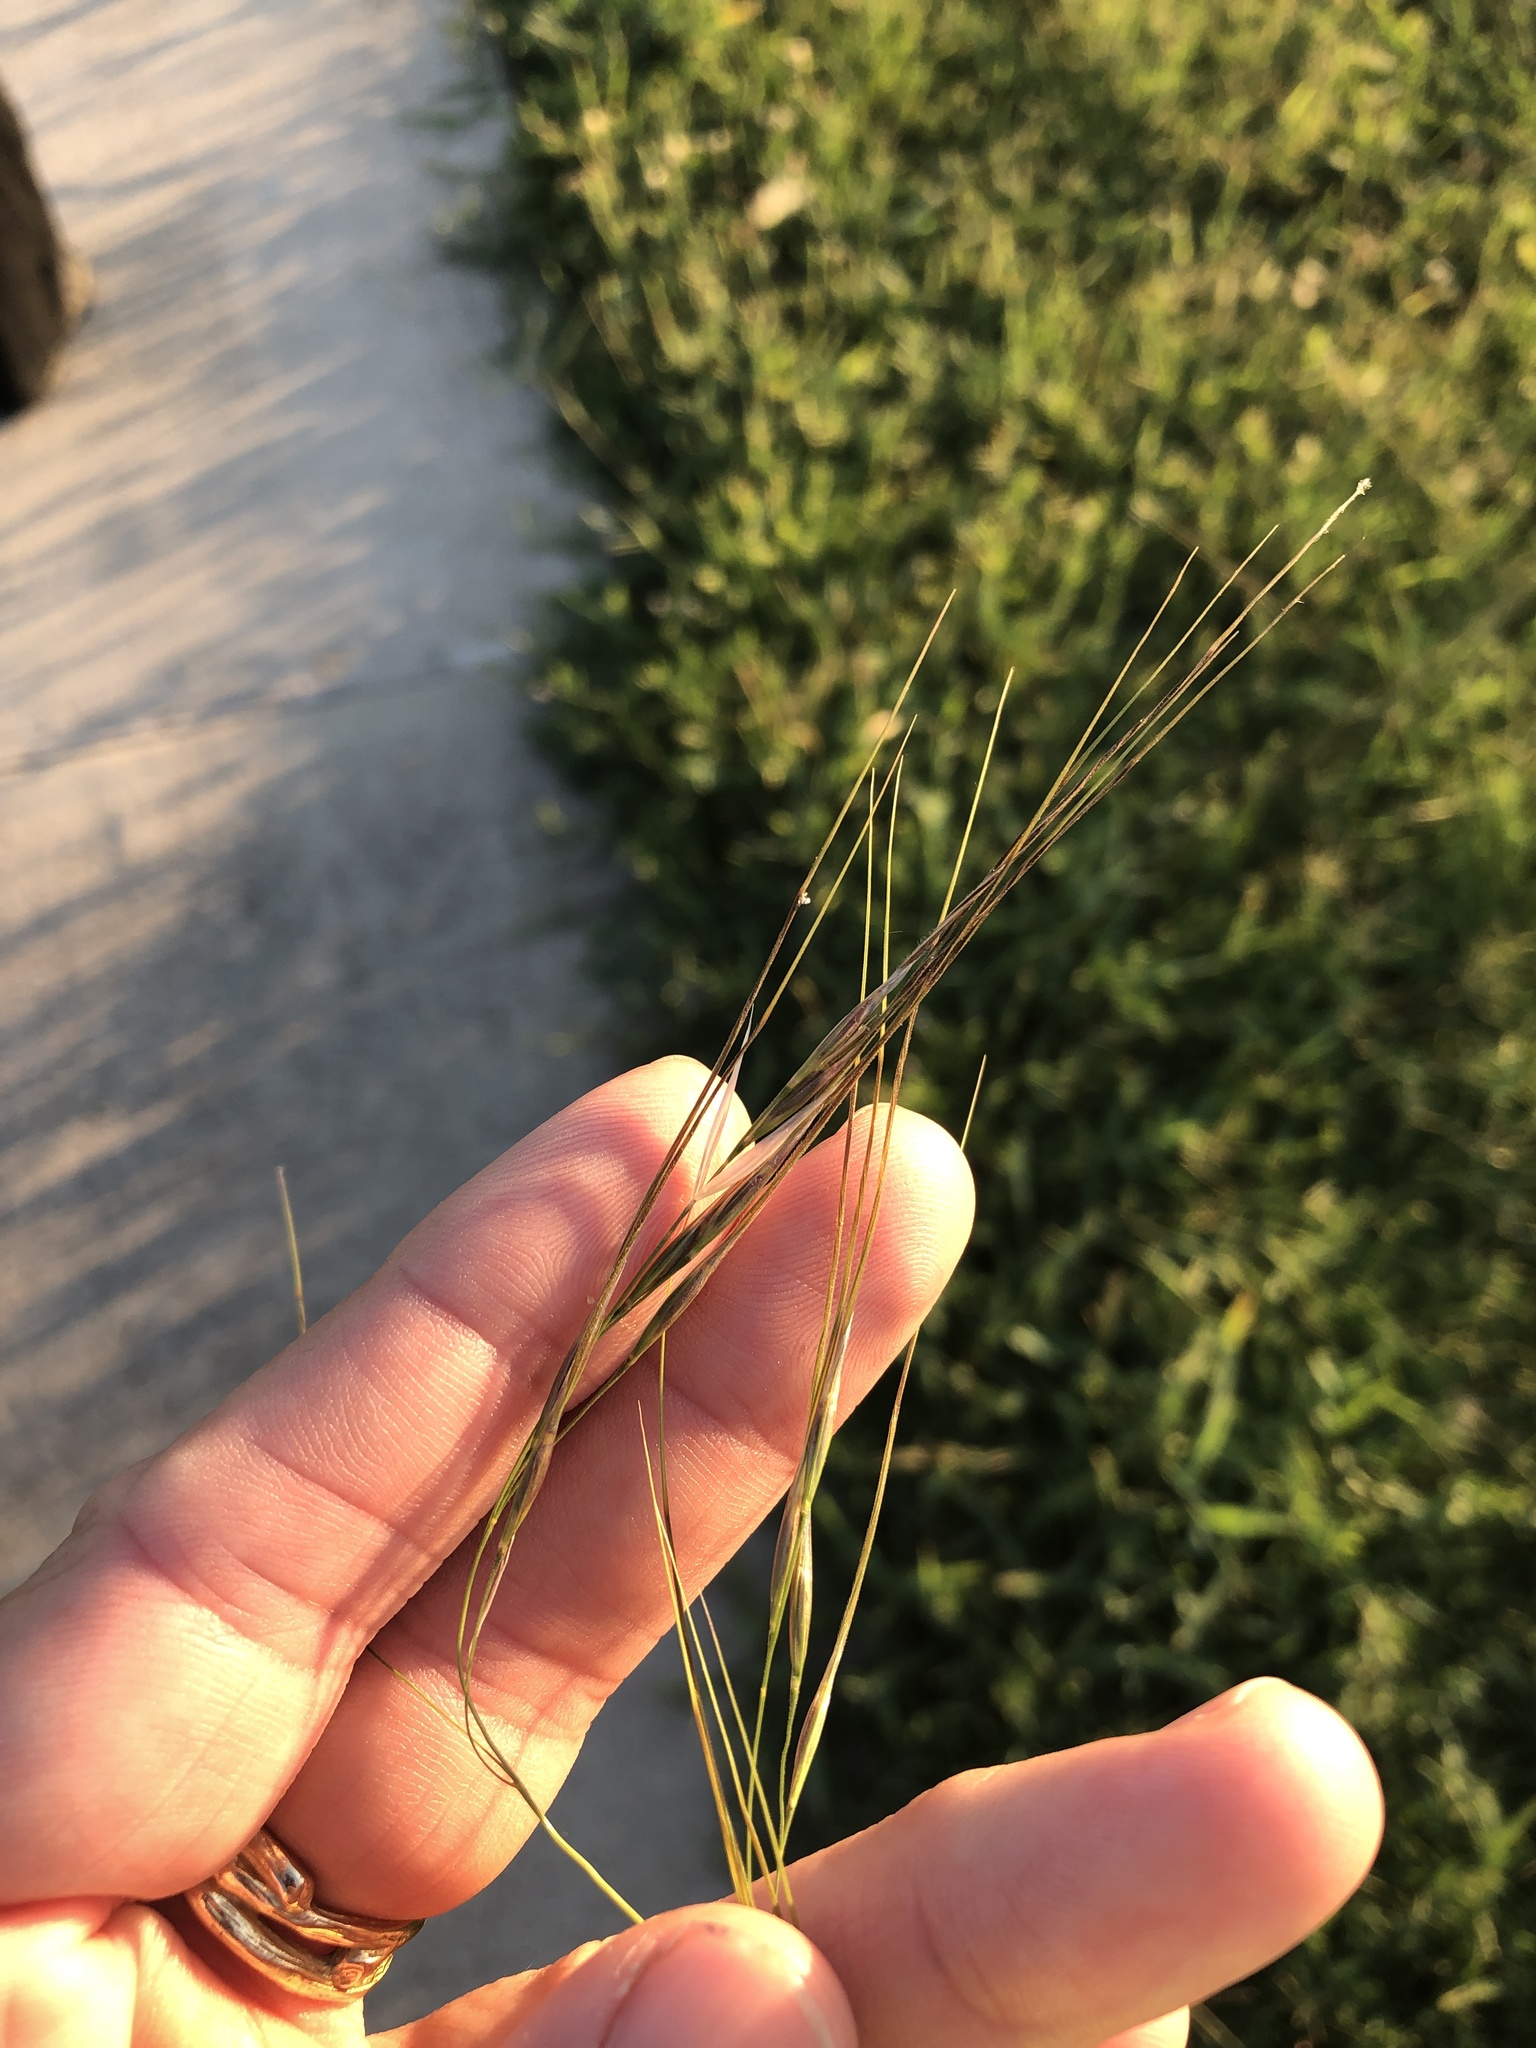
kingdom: Plantae
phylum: Tracheophyta
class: Liliopsida
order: Poales
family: Poaceae
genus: Nassella
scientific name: Nassella leucotricha
